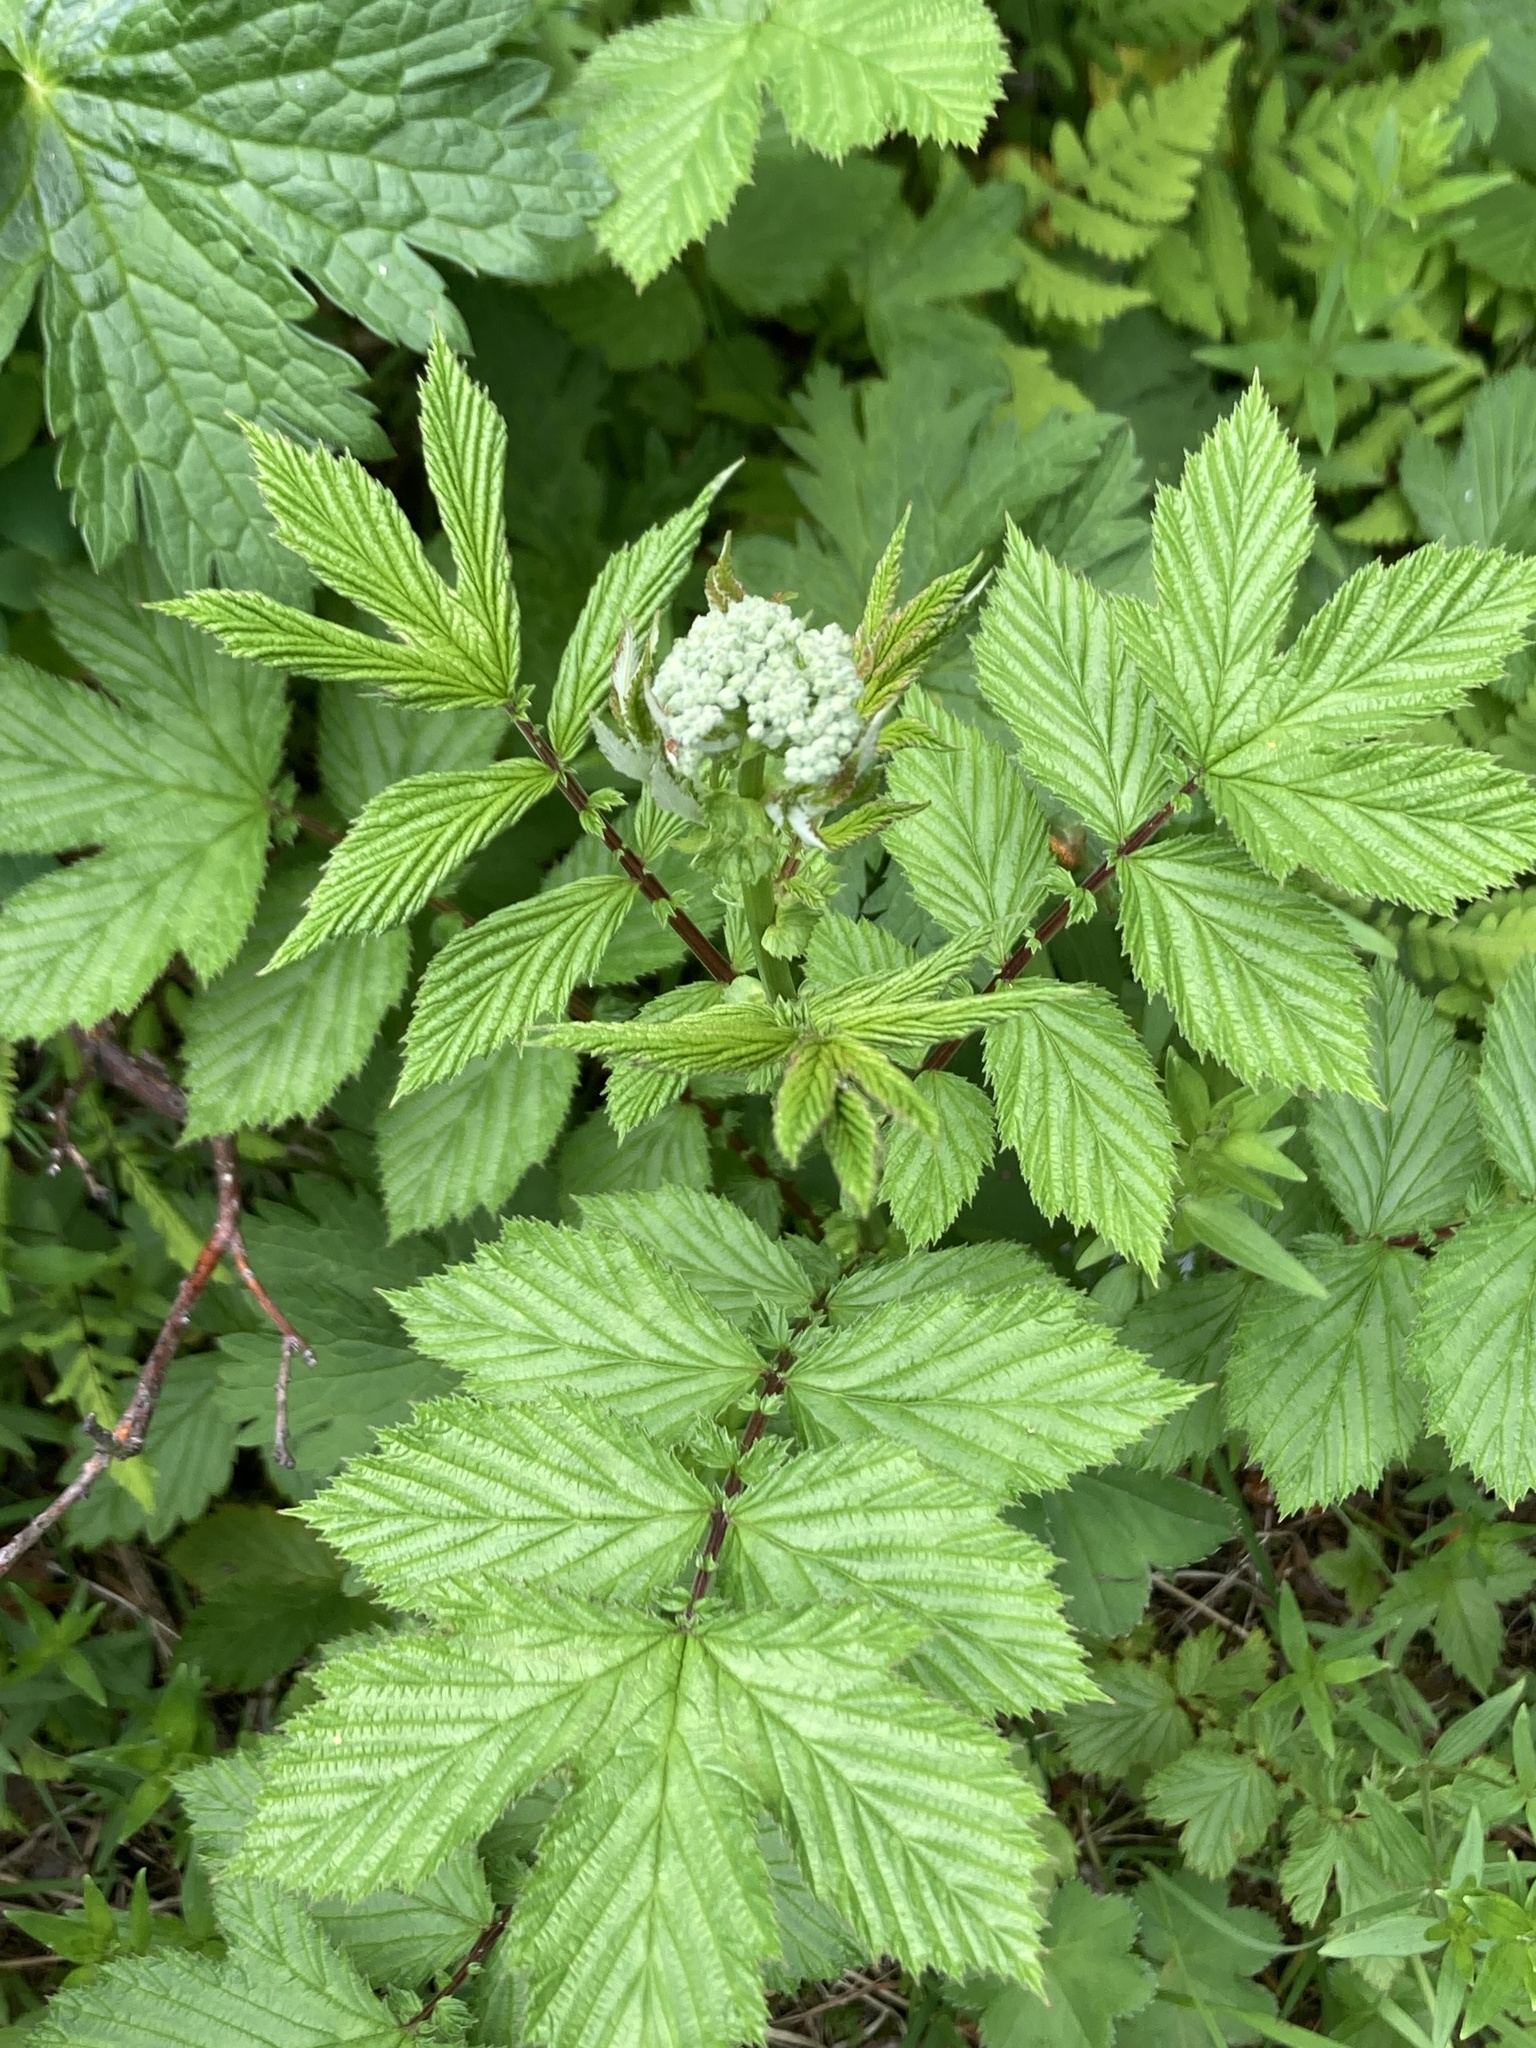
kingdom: Plantae
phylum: Tracheophyta
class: Magnoliopsida
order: Rosales
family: Rosaceae
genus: Filipendula
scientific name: Filipendula ulmaria
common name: Meadowsweet
